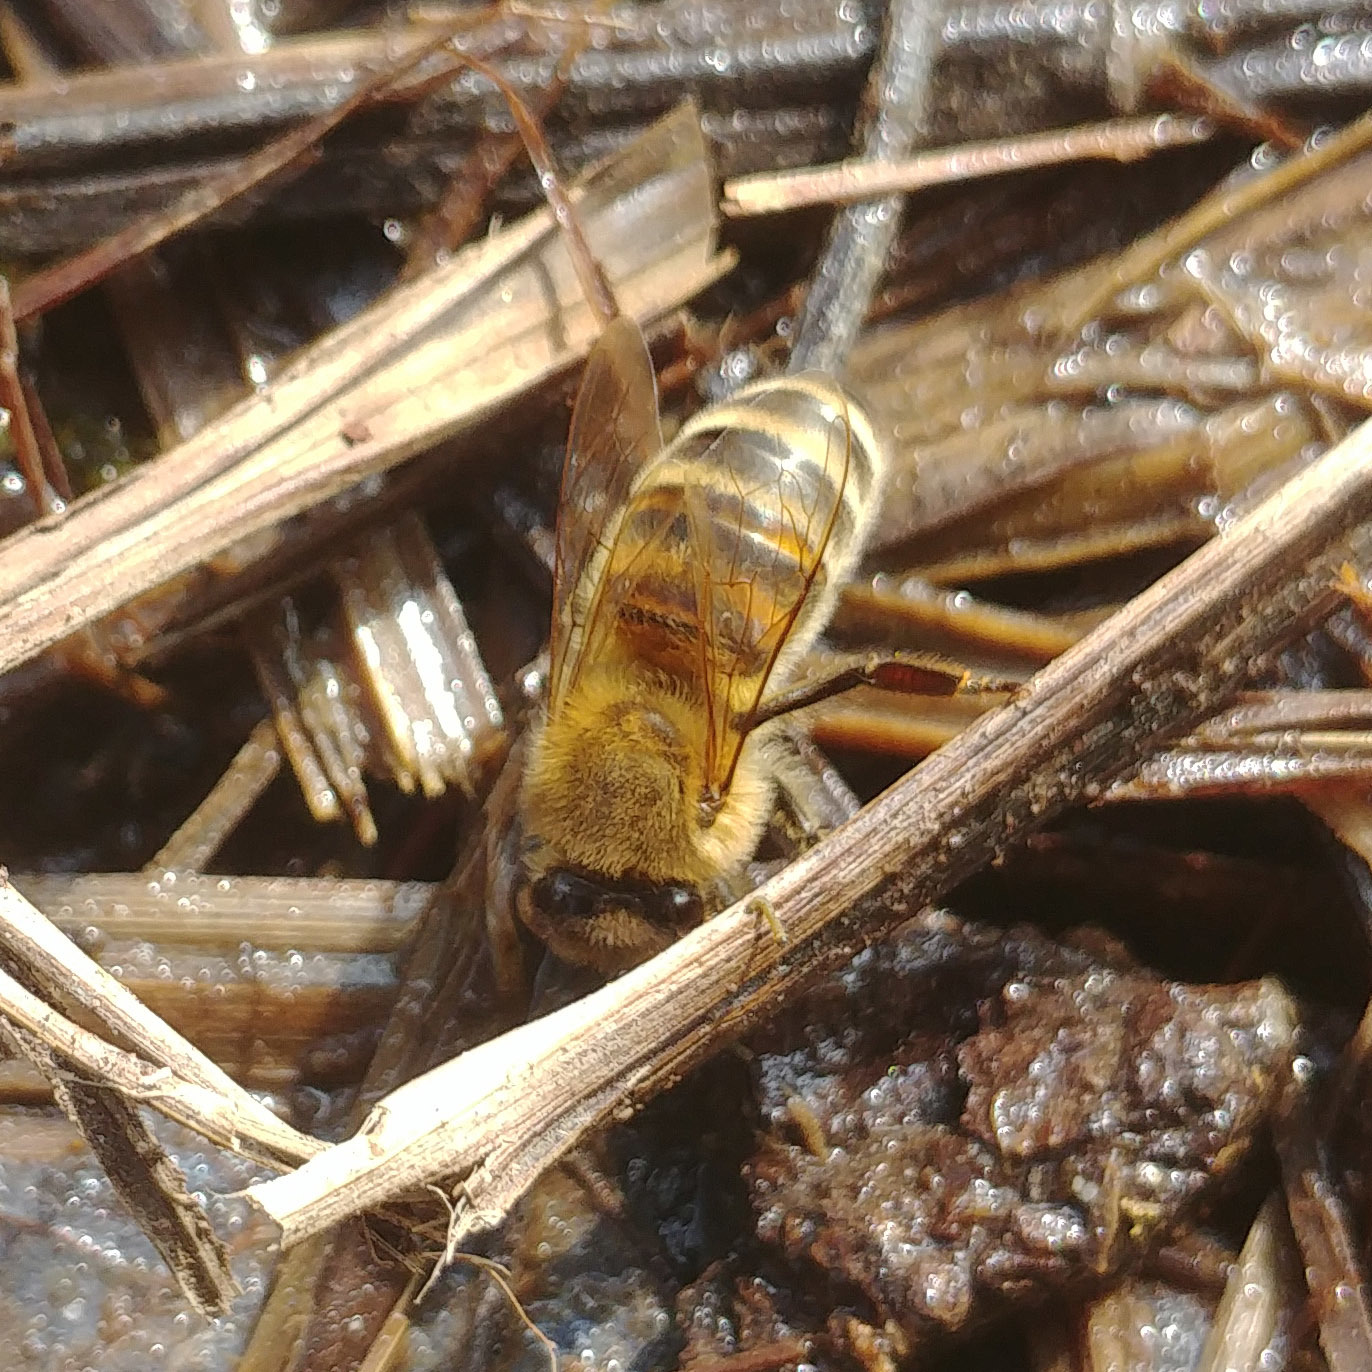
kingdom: Animalia
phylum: Arthropoda
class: Insecta
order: Hymenoptera
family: Apidae
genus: Apis
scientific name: Apis mellifera
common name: Honey bee
